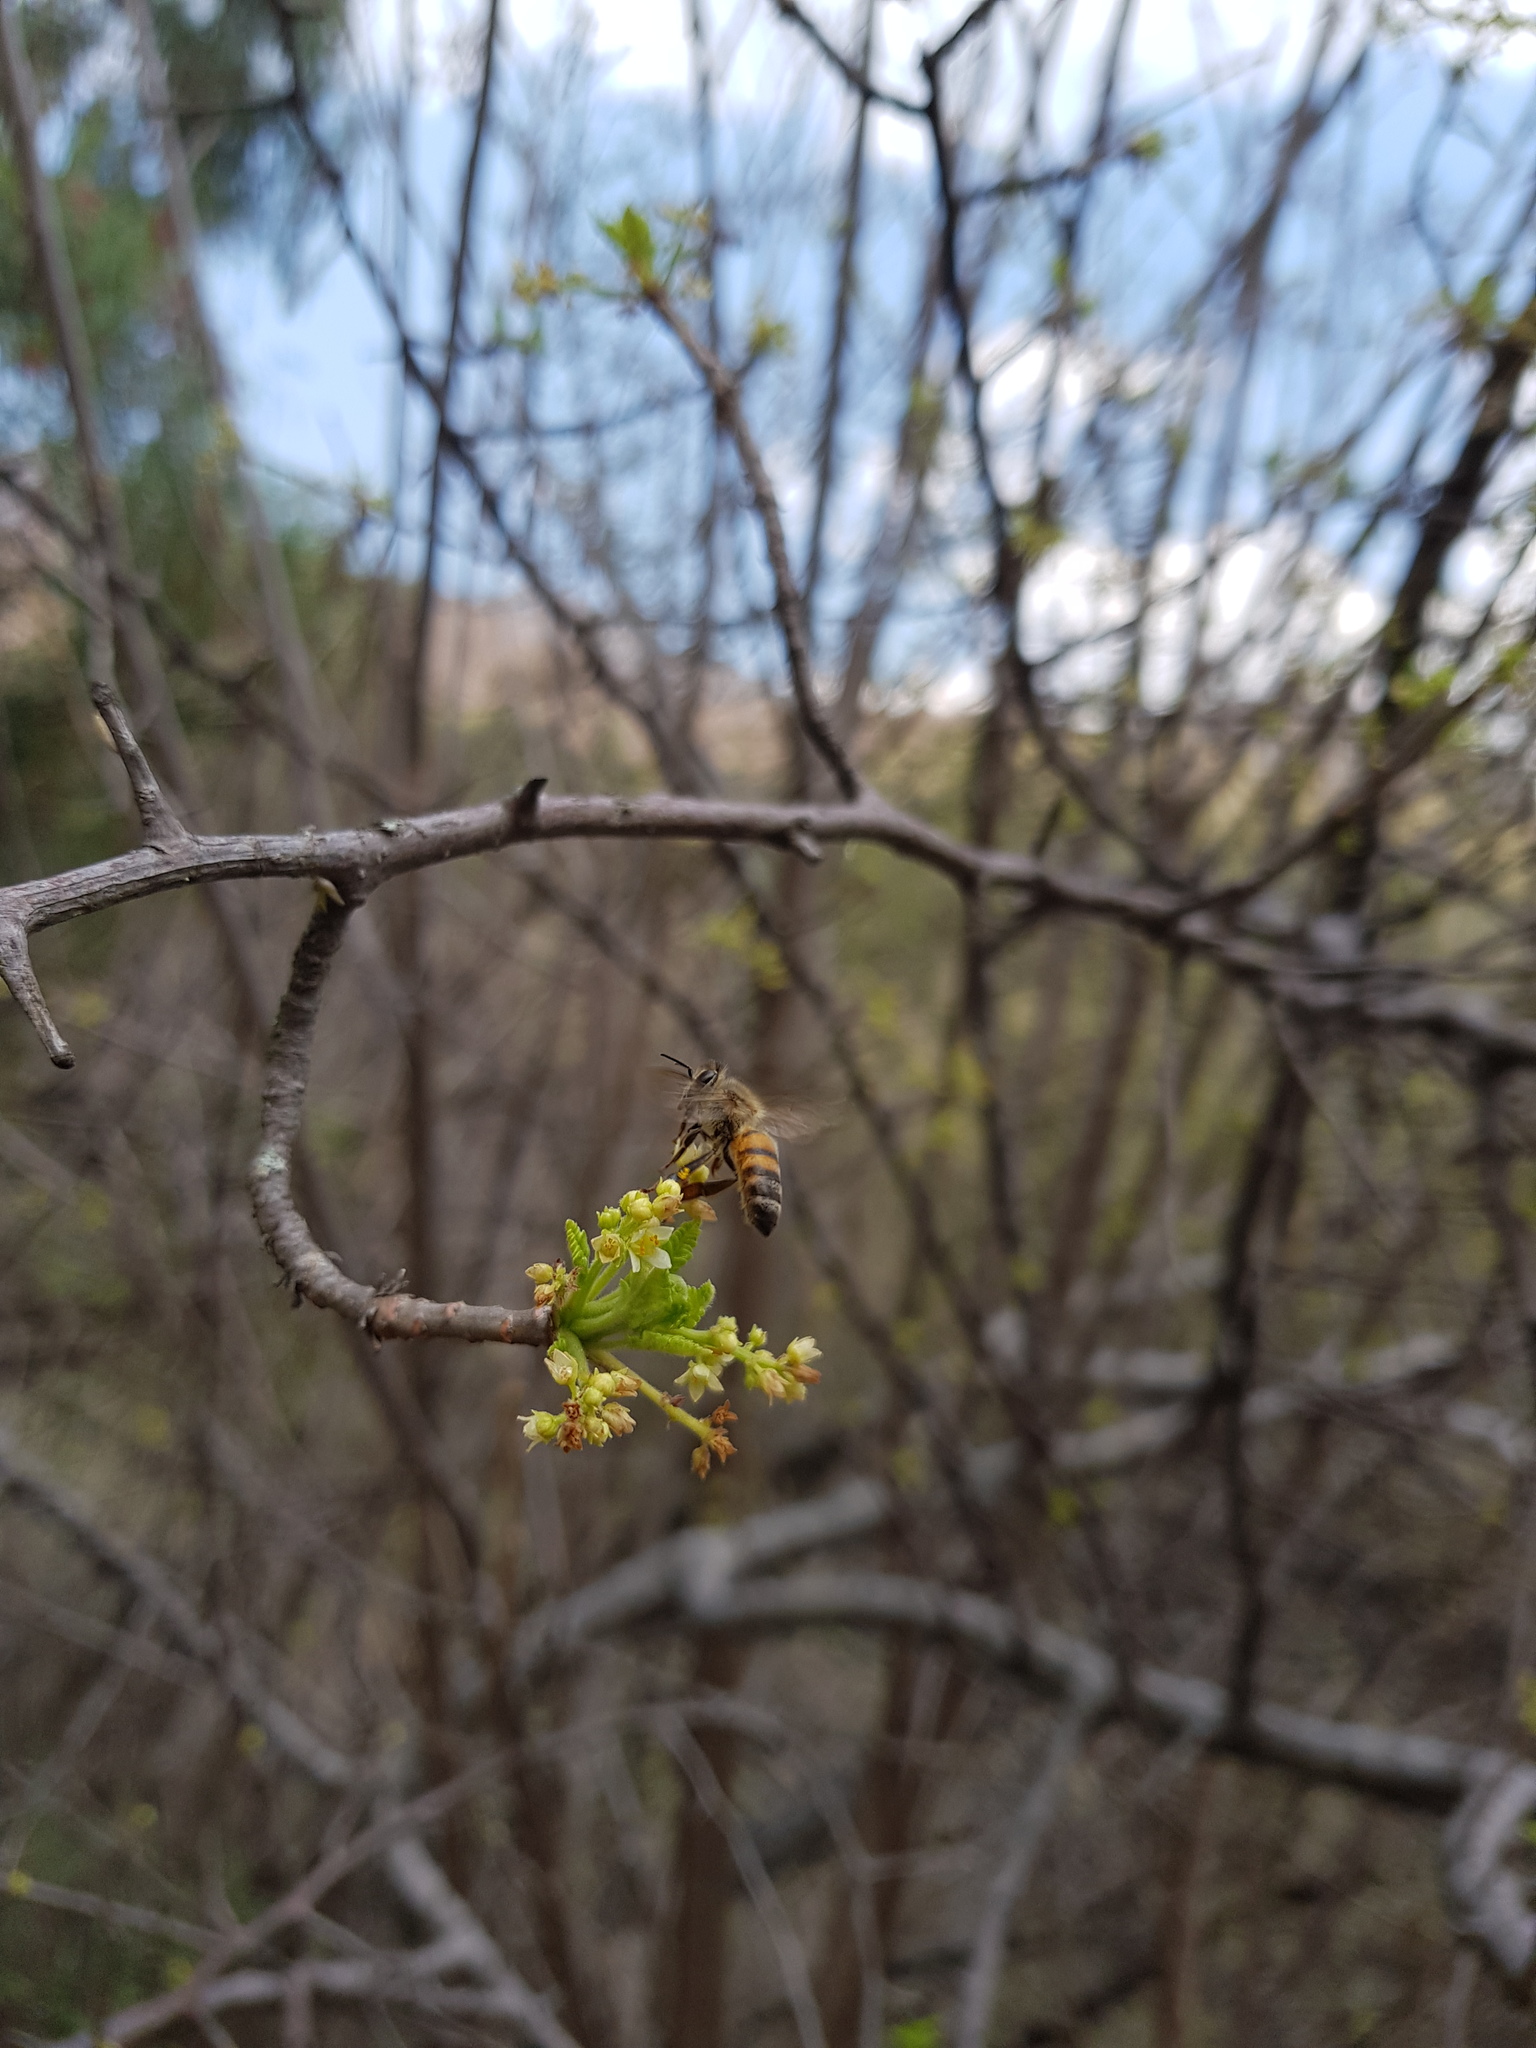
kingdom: Animalia
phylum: Arthropoda
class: Insecta
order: Hymenoptera
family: Apidae
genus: Apis
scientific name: Apis mellifera
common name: Honey bee
